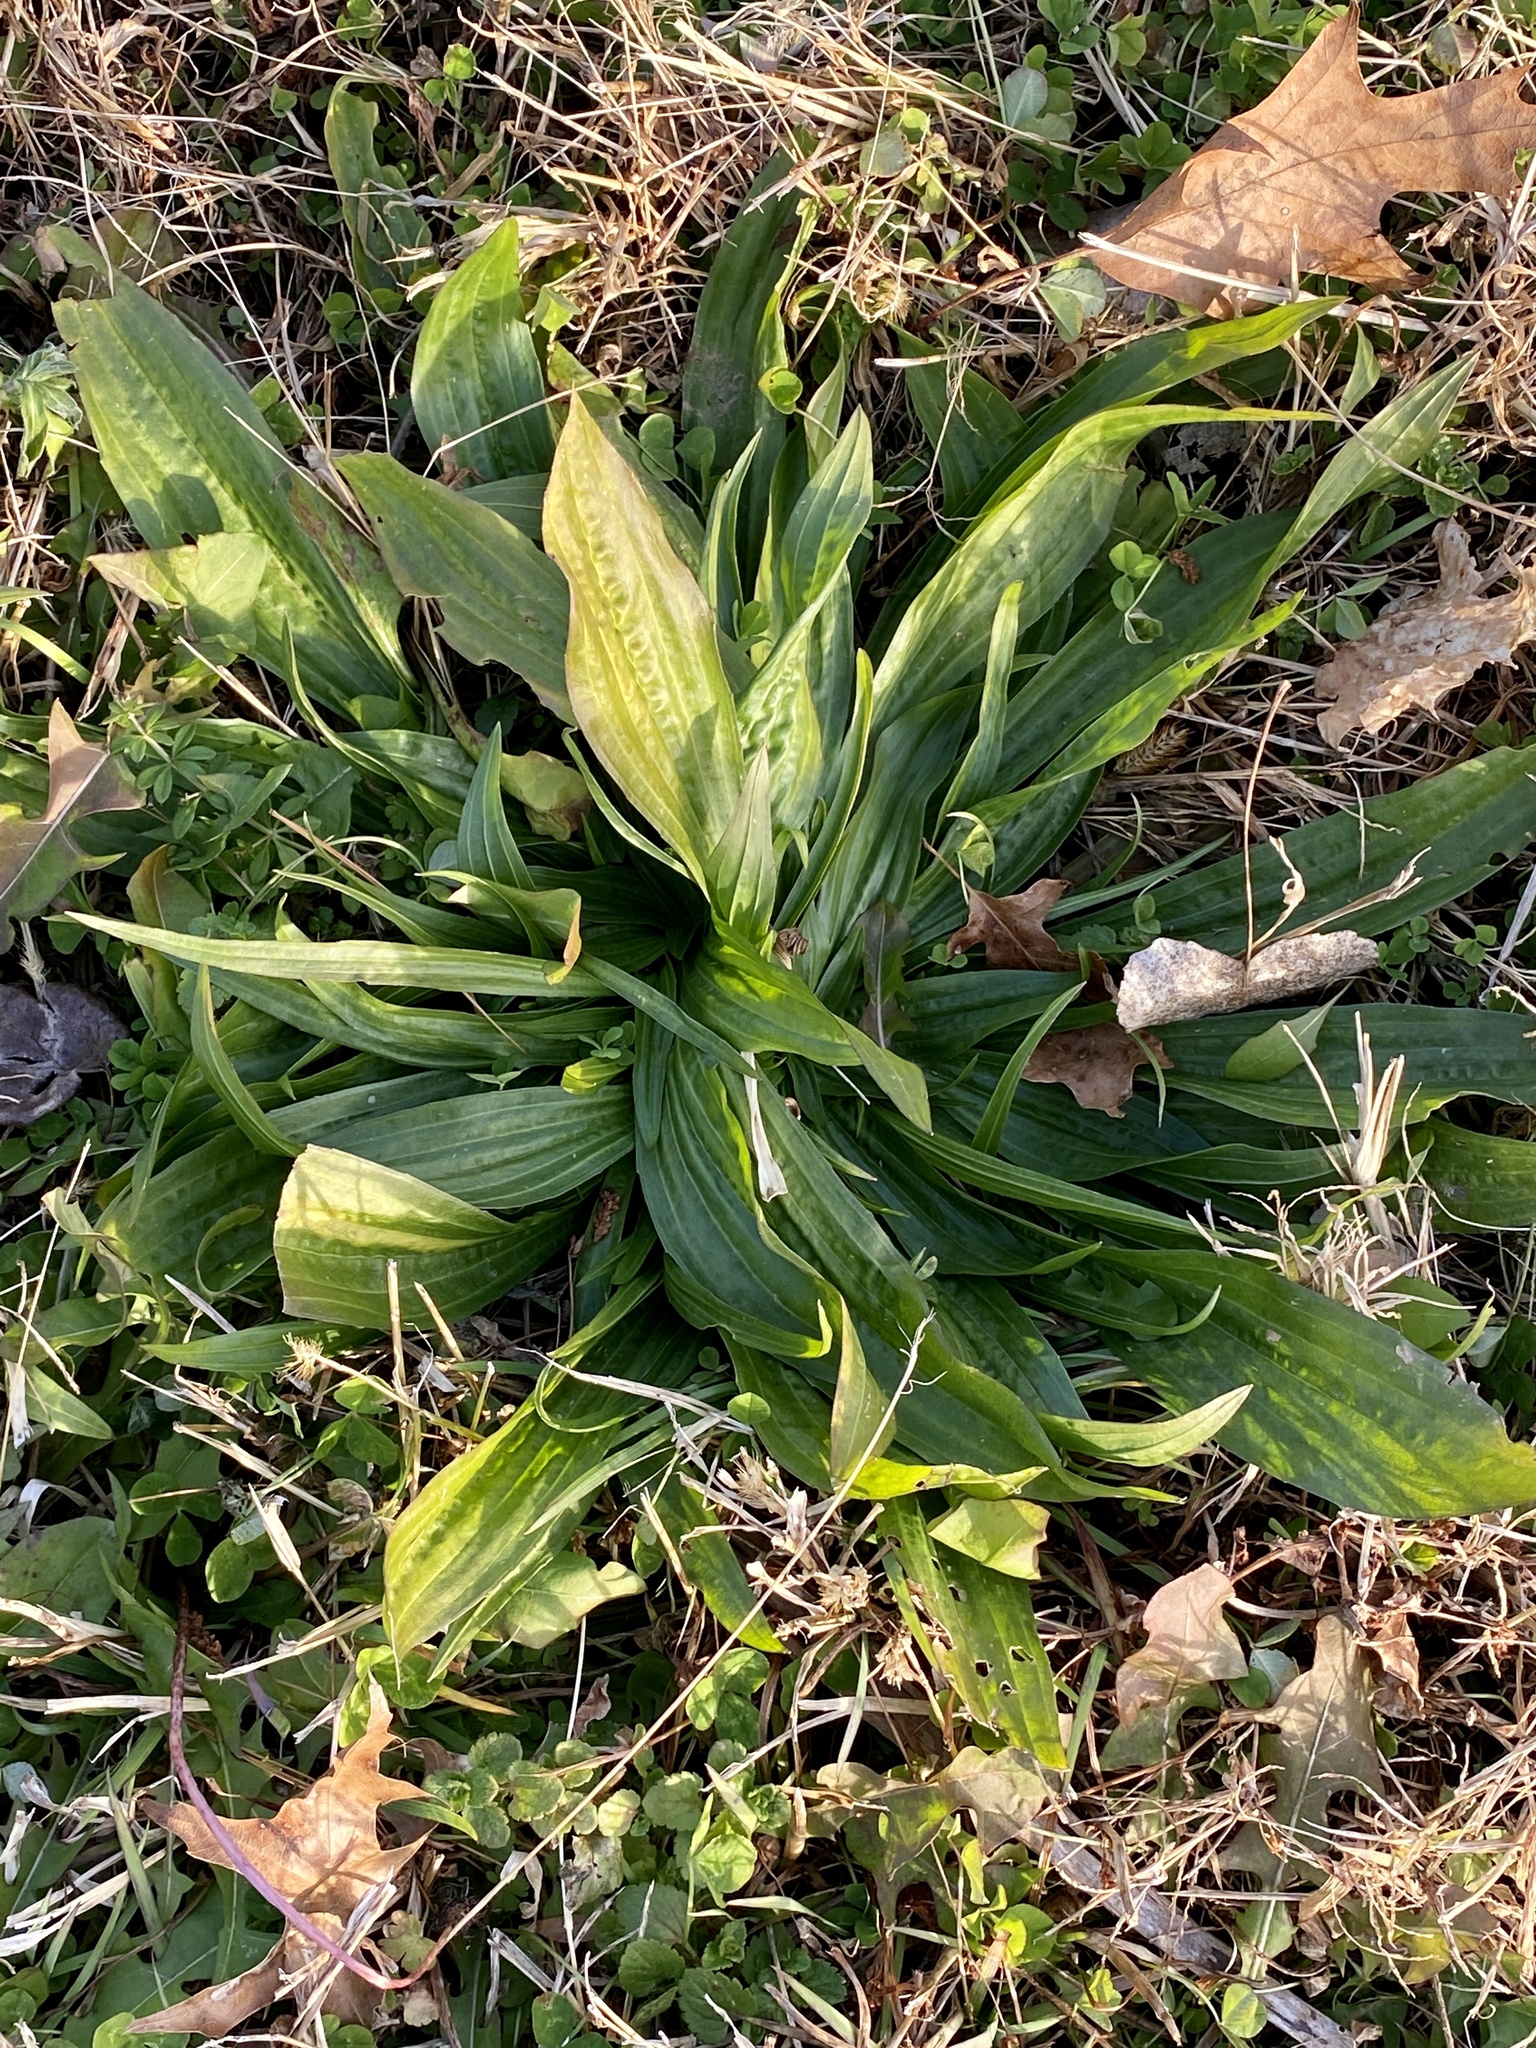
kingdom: Plantae
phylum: Tracheophyta
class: Magnoliopsida
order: Lamiales
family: Plantaginaceae
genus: Plantago
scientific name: Plantago lanceolata
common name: Ribwort plantain
